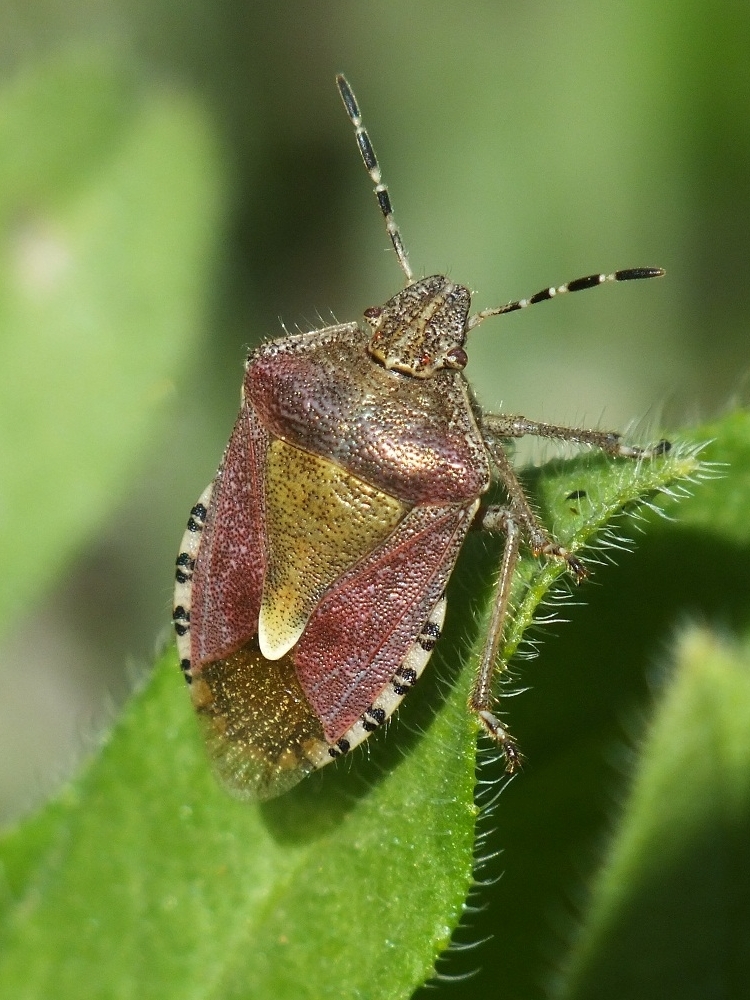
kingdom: Animalia
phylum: Arthropoda
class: Insecta
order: Hemiptera
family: Pentatomidae
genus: Dolycoris
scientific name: Dolycoris baccarum
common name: Sloe bug
